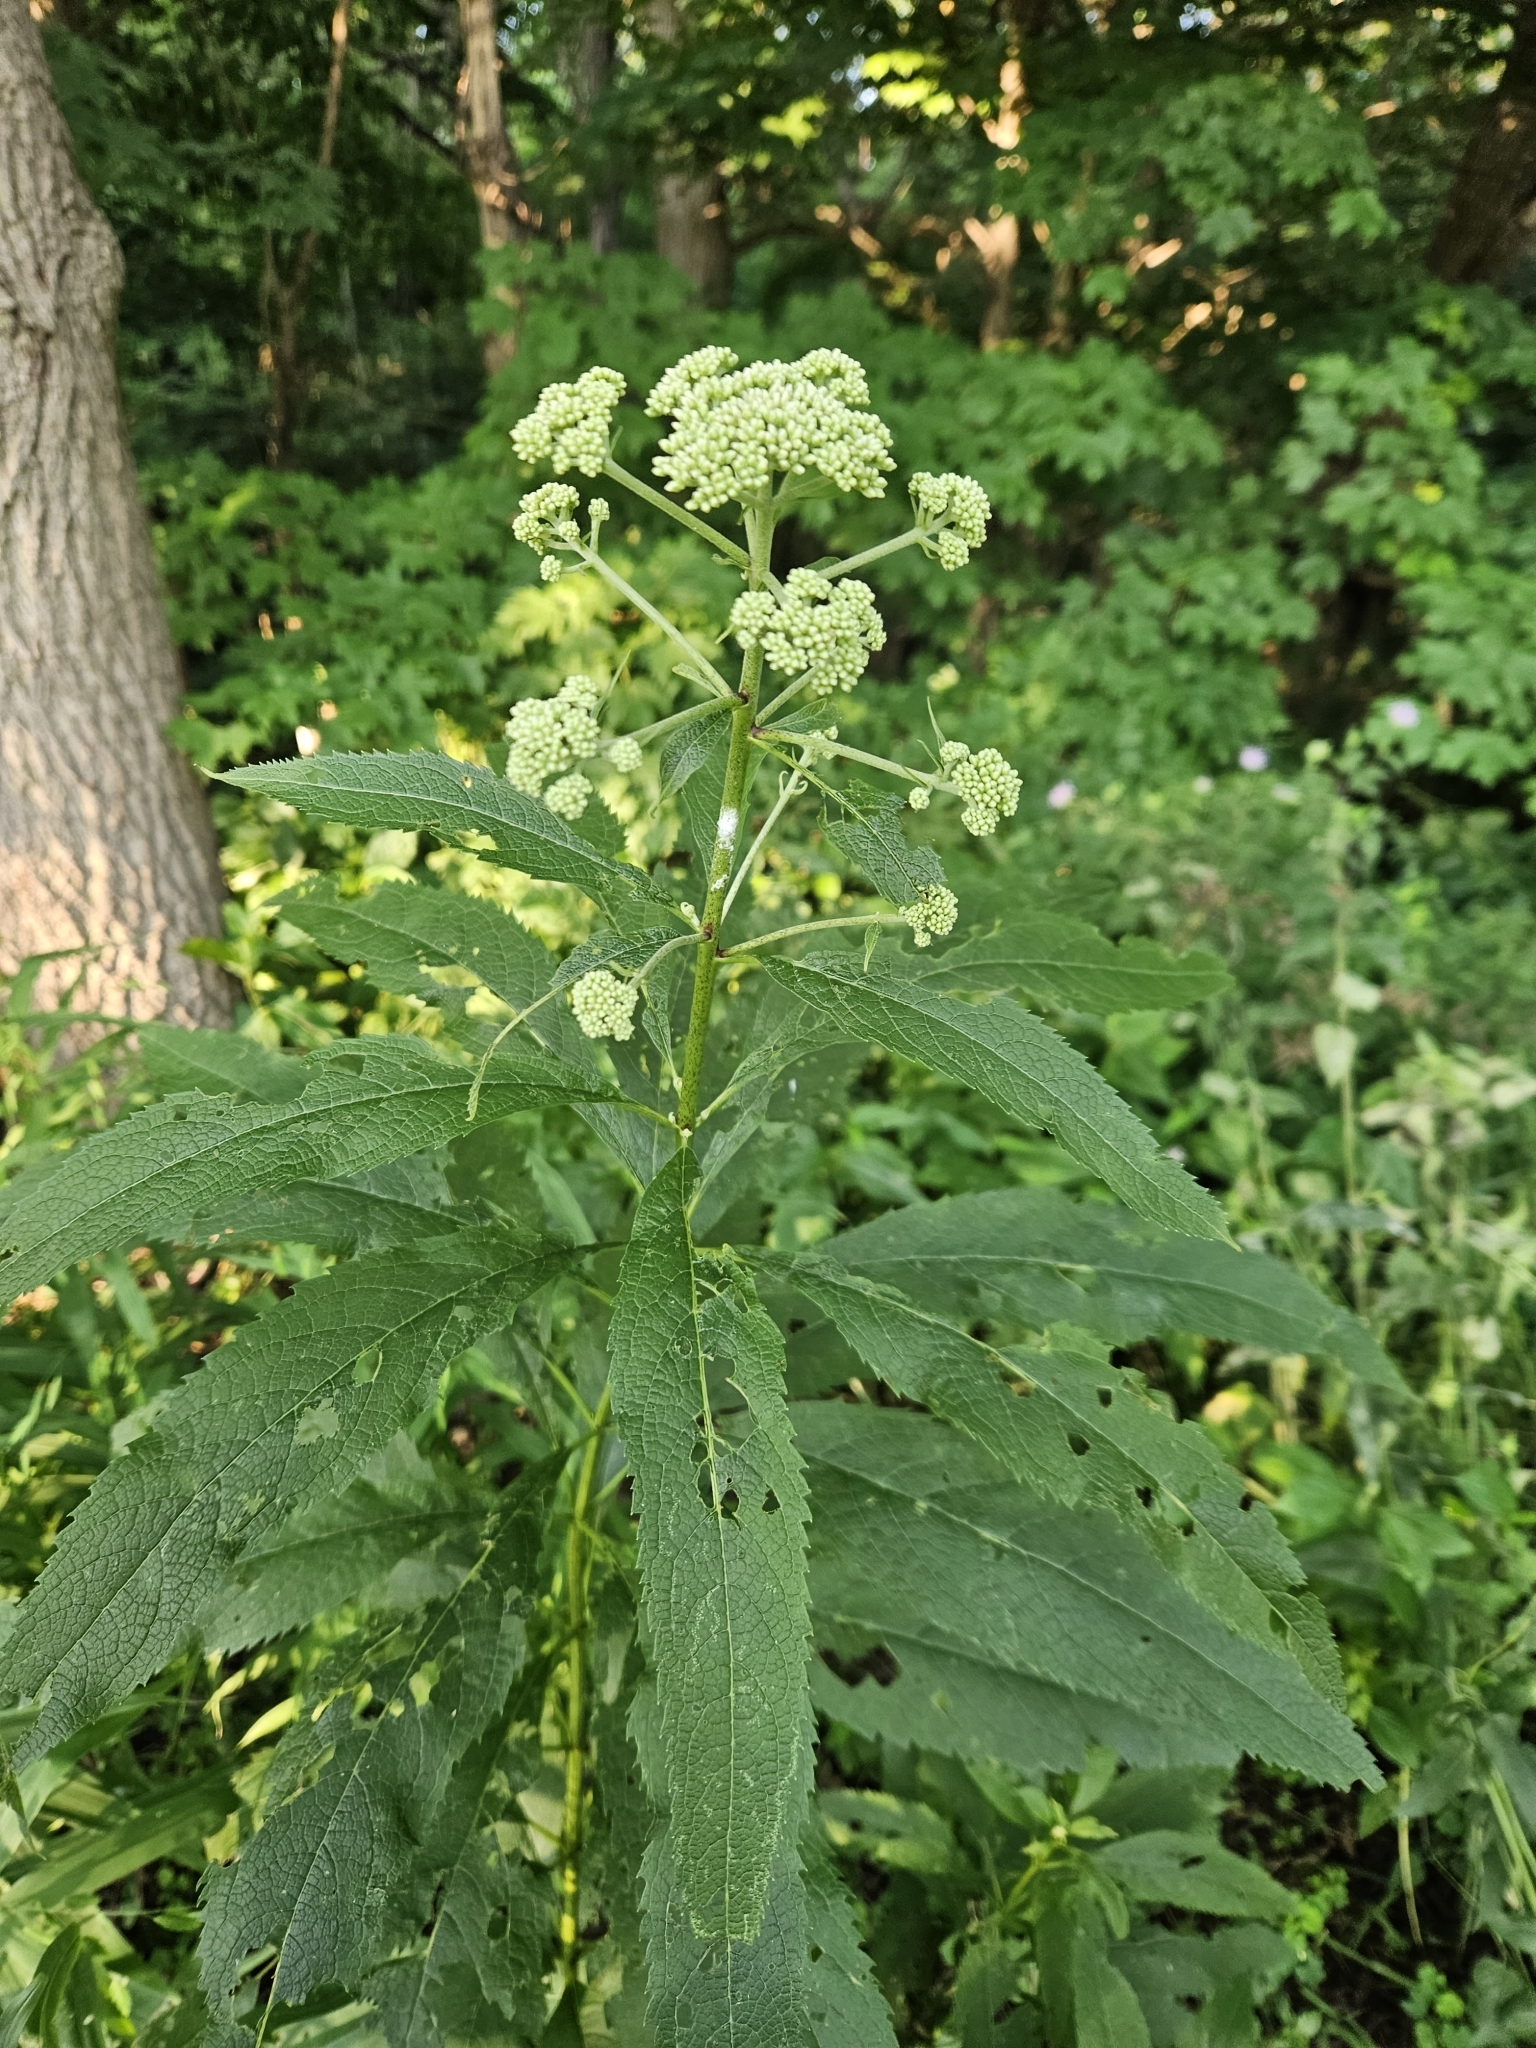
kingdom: Plantae
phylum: Tracheophyta
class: Magnoliopsida
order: Asterales
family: Asteraceae
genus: Eutrochium
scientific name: Eutrochium purpureum
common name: Gravelroot
